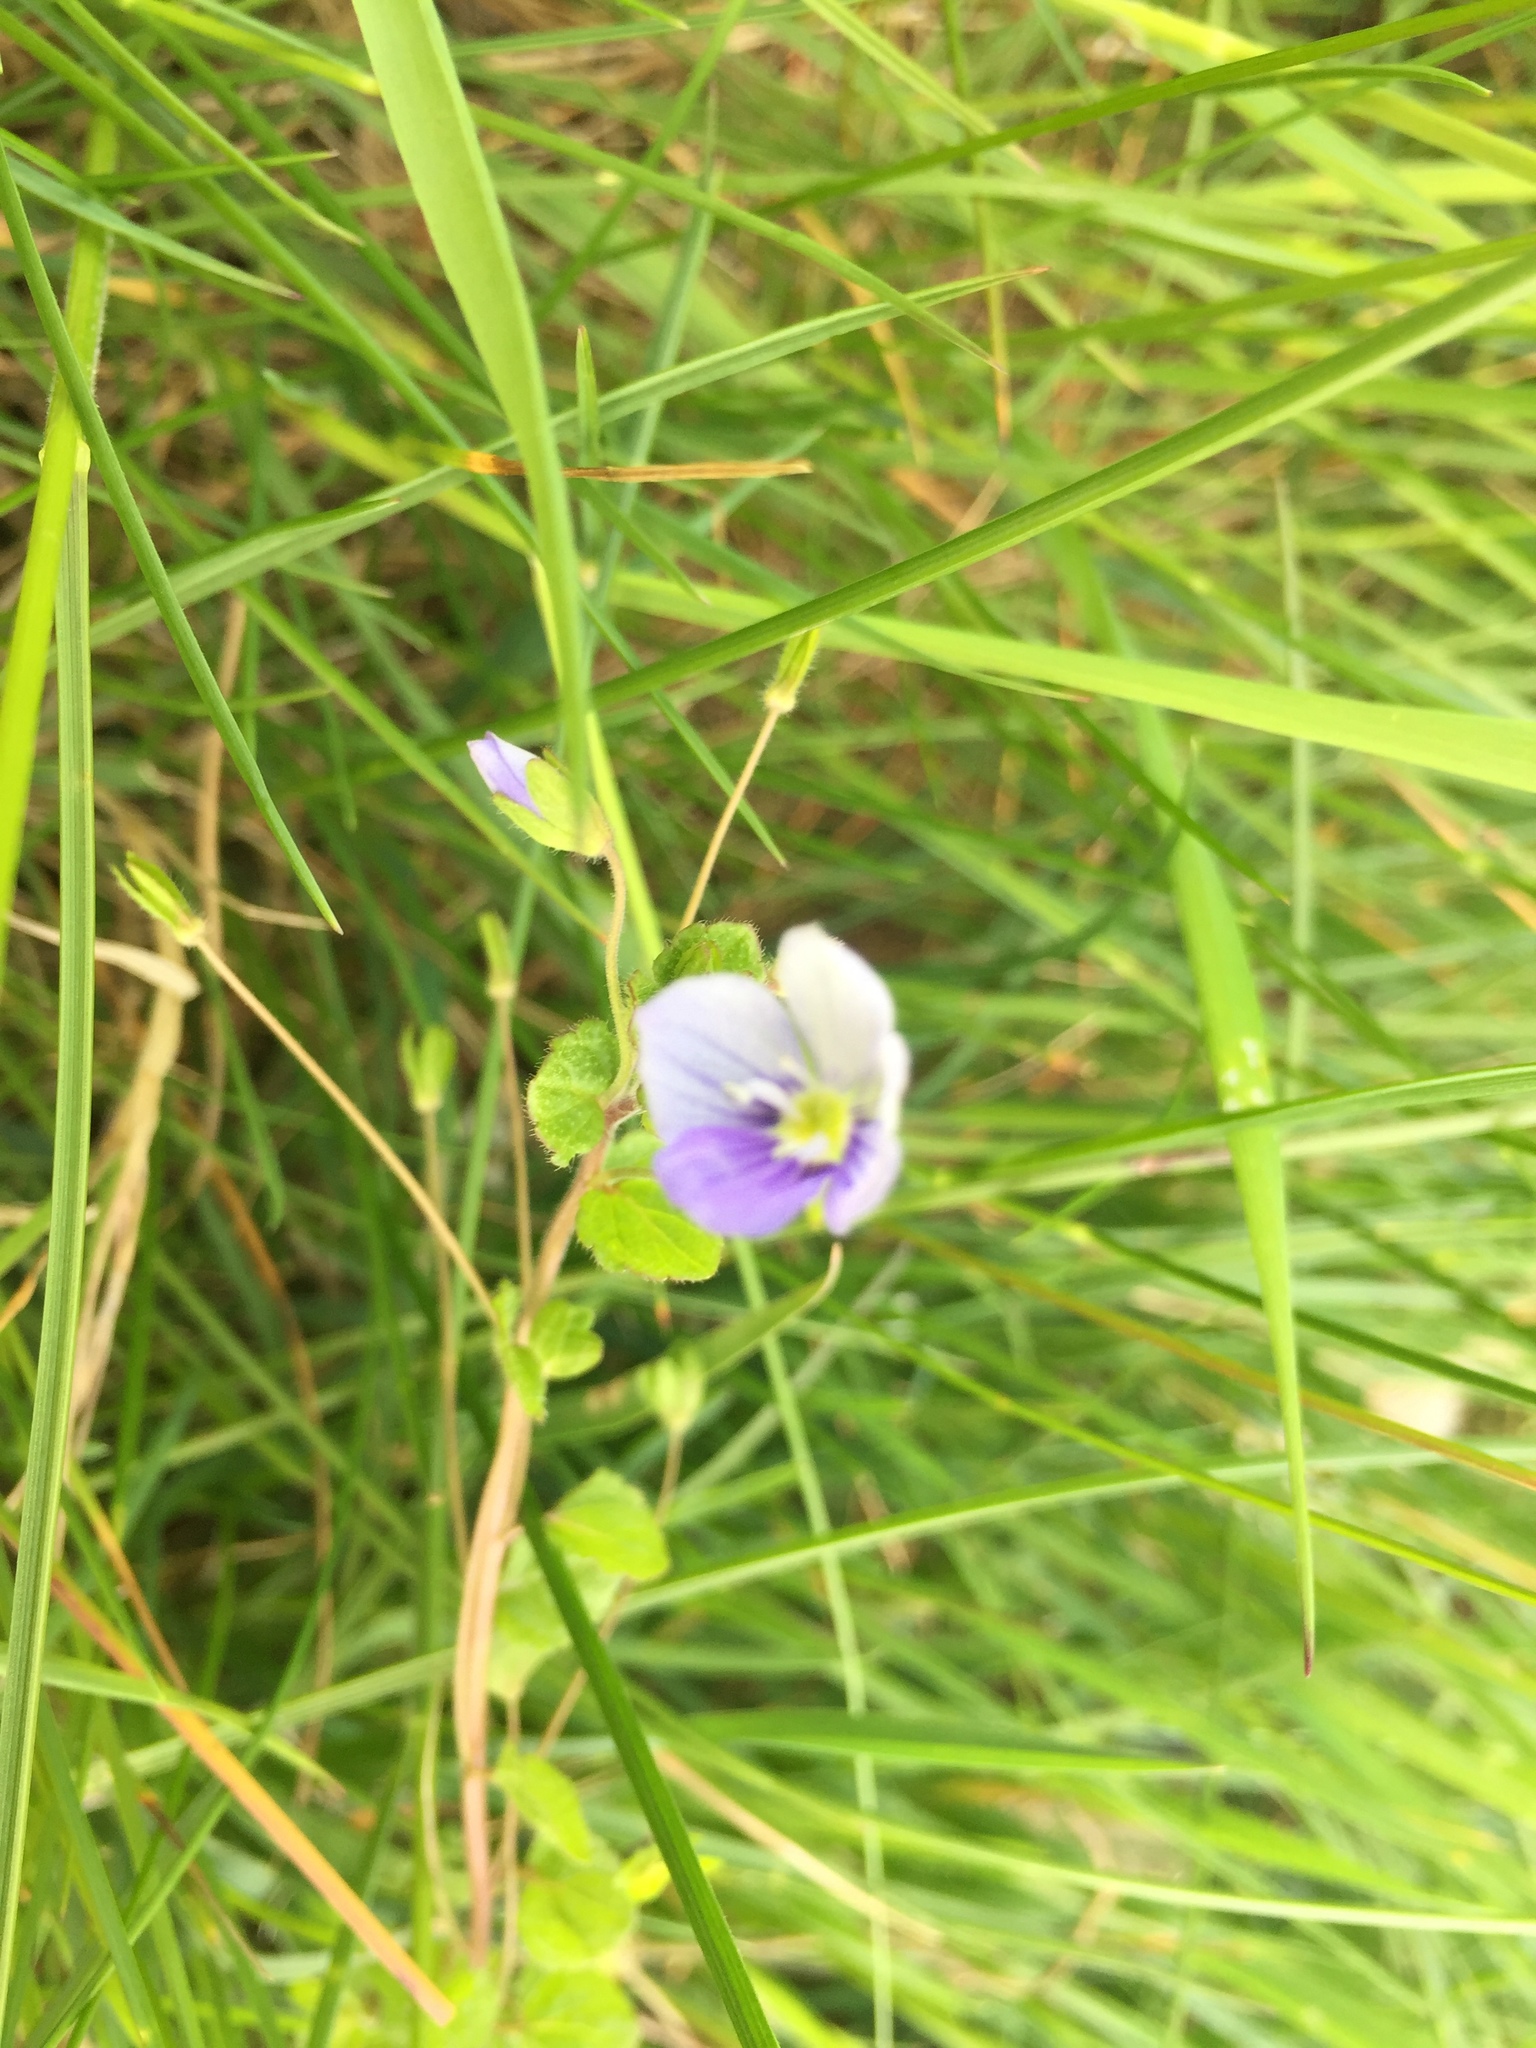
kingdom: Plantae
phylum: Tracheophyta
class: Magnoliopsida
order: Lamiales
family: Plantaginaceae
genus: Veronica
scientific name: Veronica filiformis
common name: Slender speedwell
